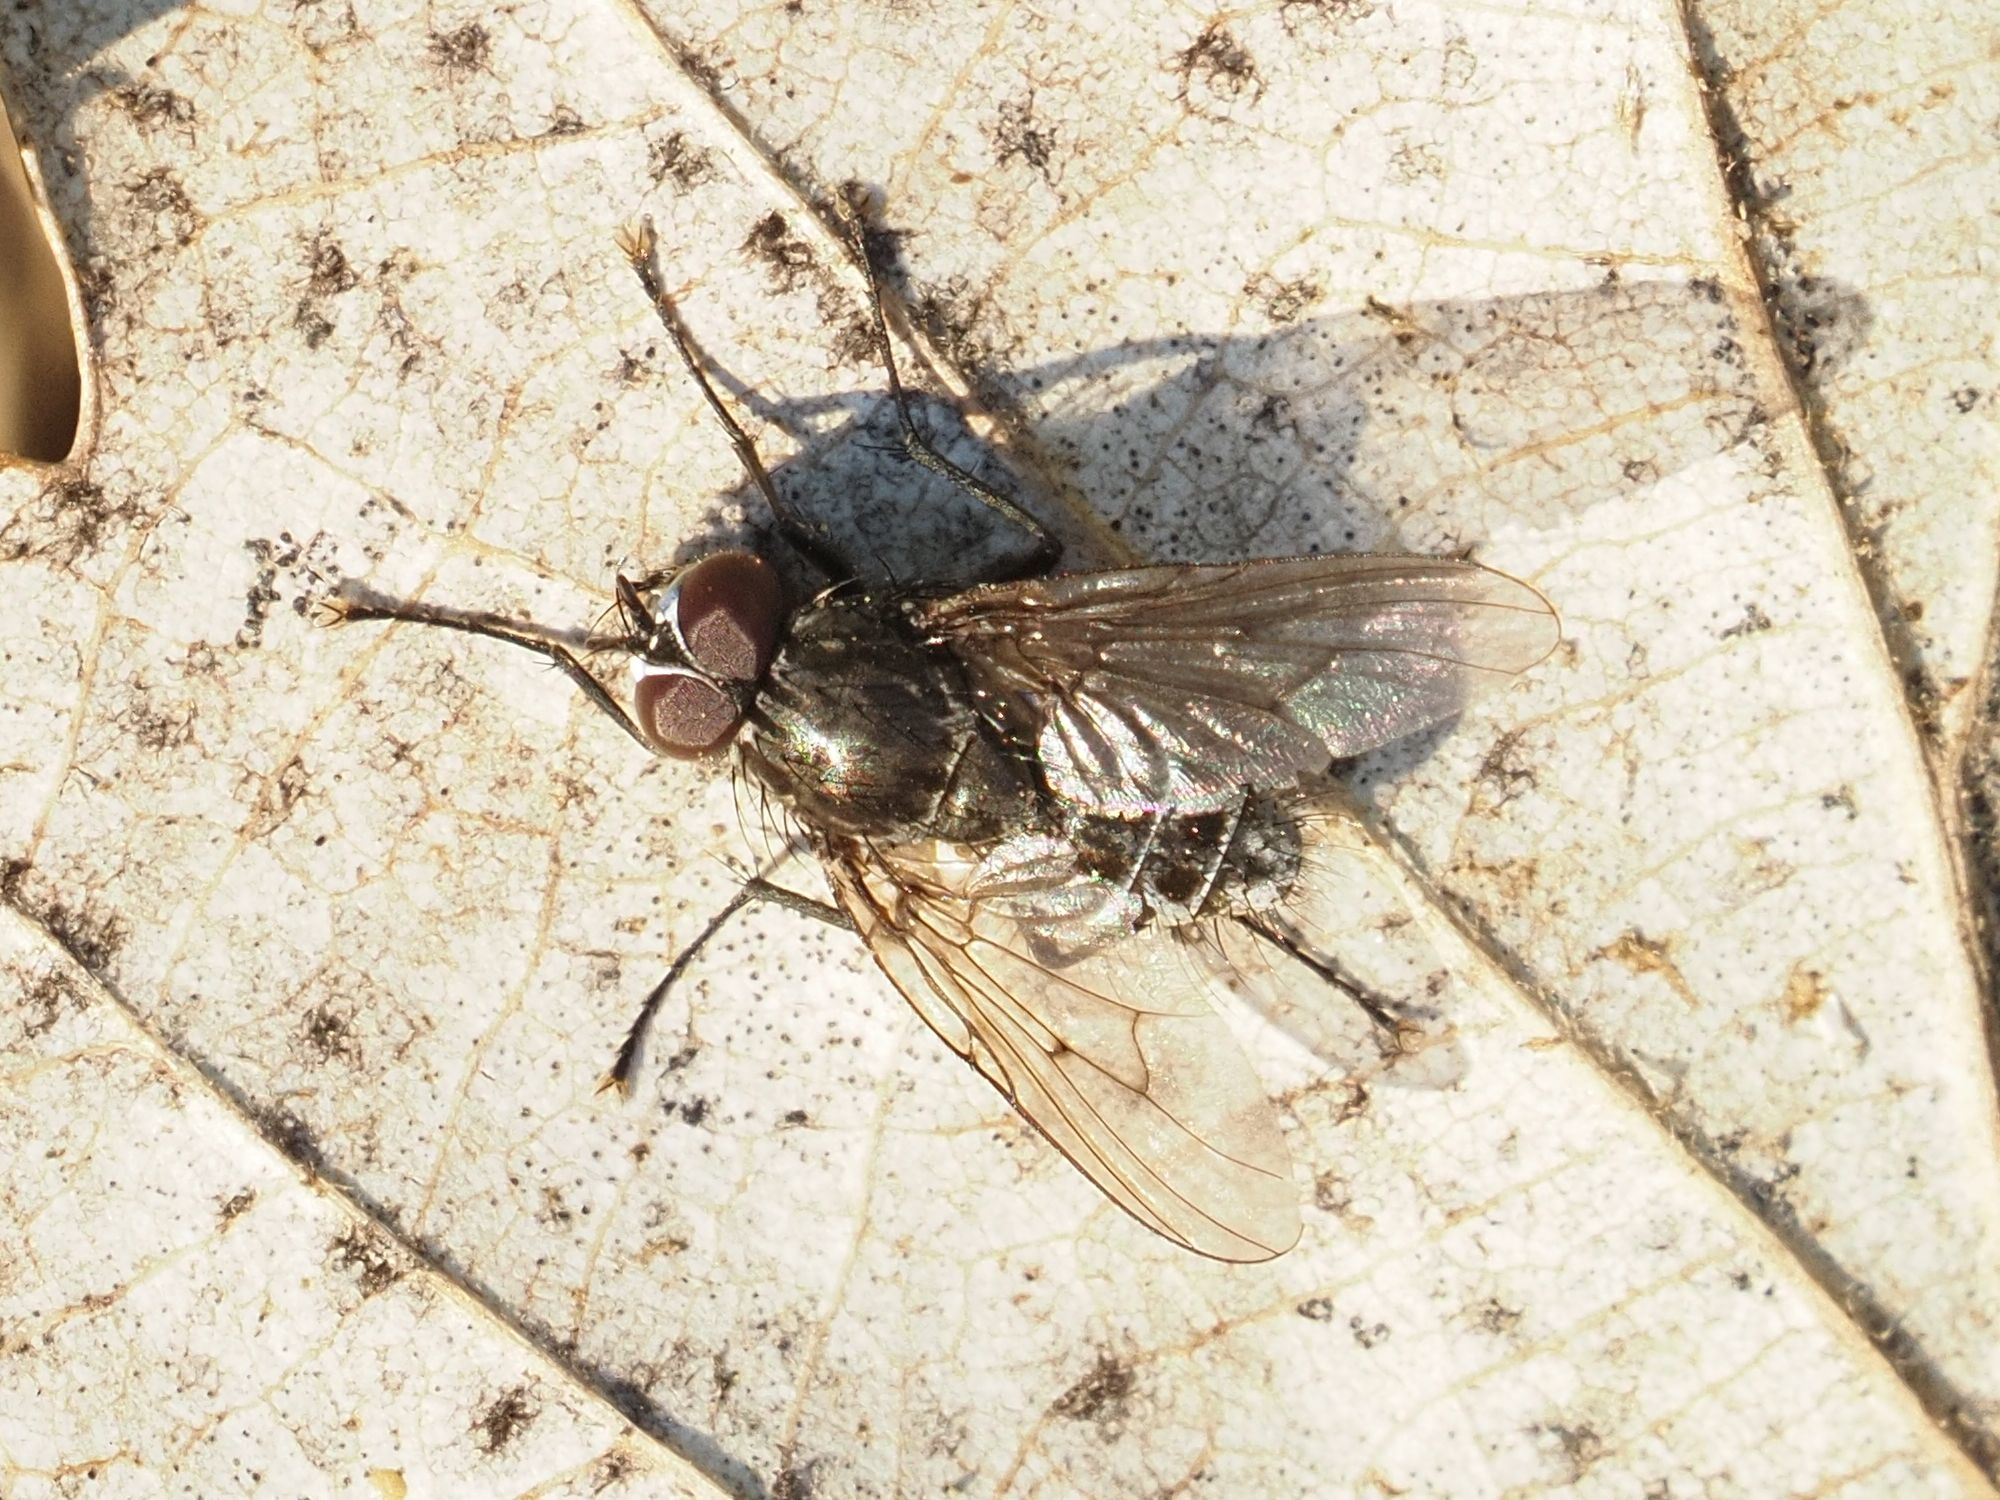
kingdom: Animalia
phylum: Arthropoda
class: Insecta
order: Diptera
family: Muscidae
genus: Helina
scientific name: Helina evecta
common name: Muscid fly
